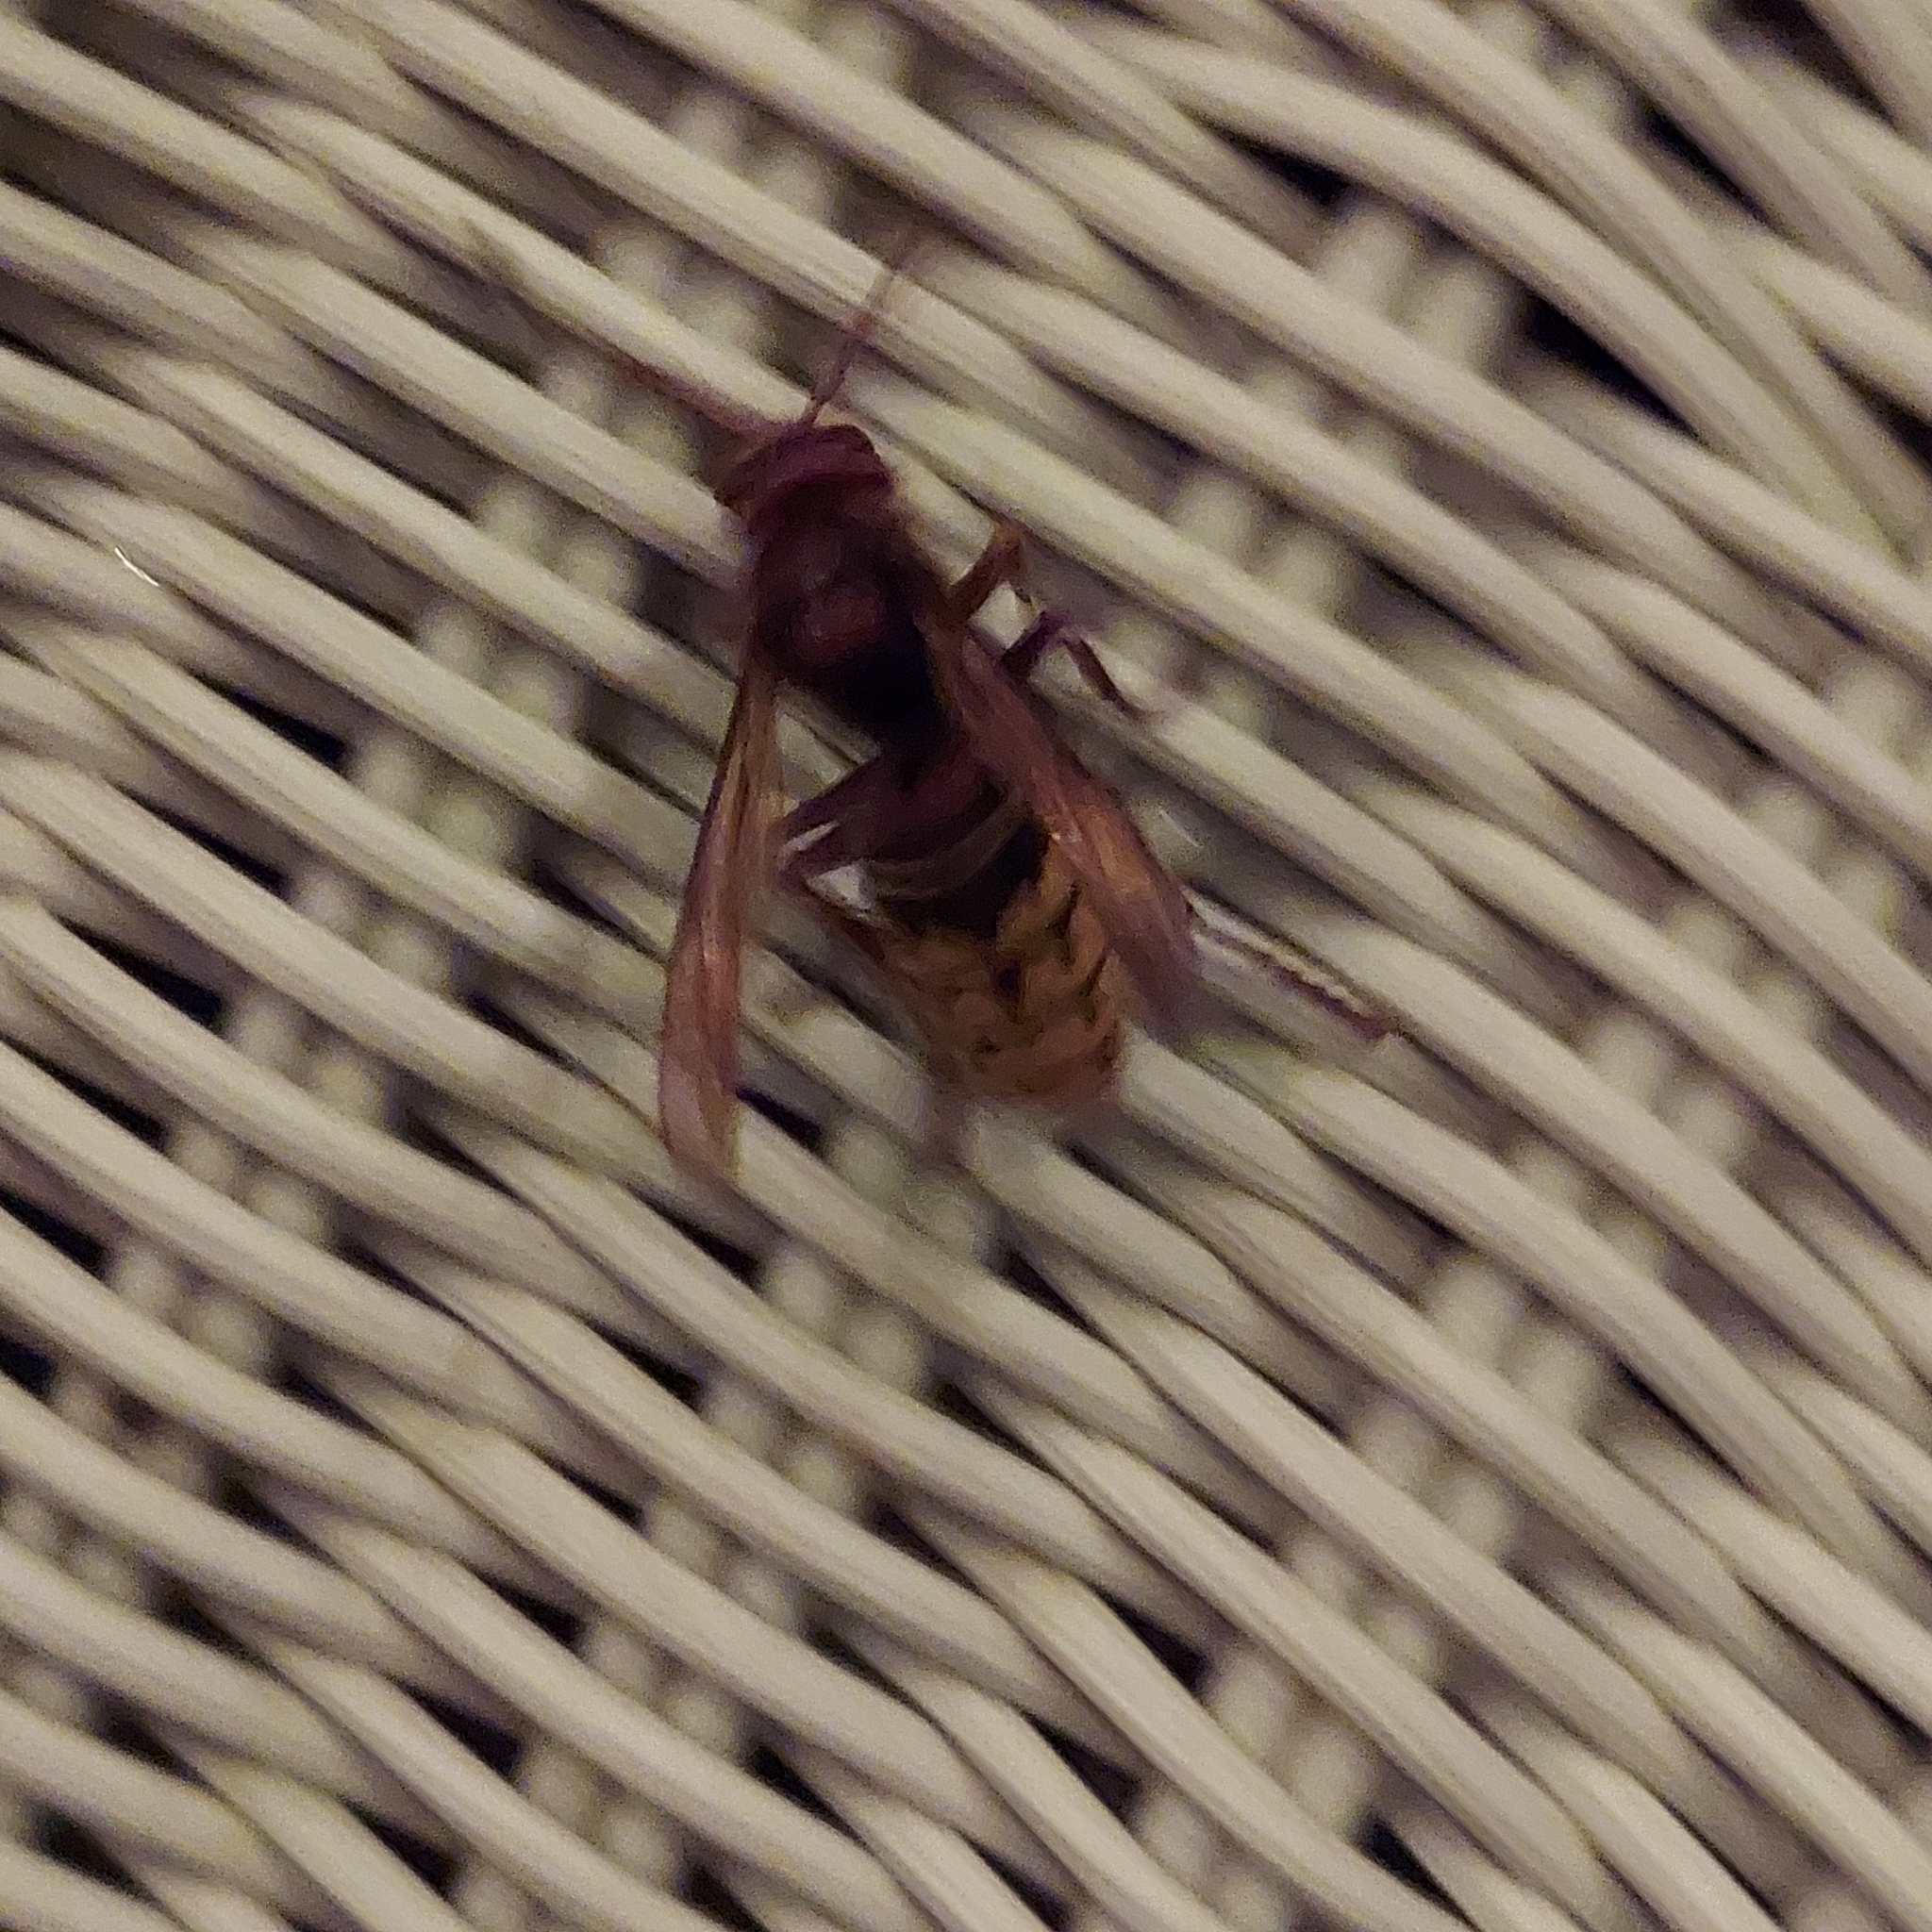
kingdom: Animalia
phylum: Arthropoda
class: Insecta
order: Hymenoptera
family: Vespidae
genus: Vespa
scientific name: Vespa crabro
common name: Hornet
